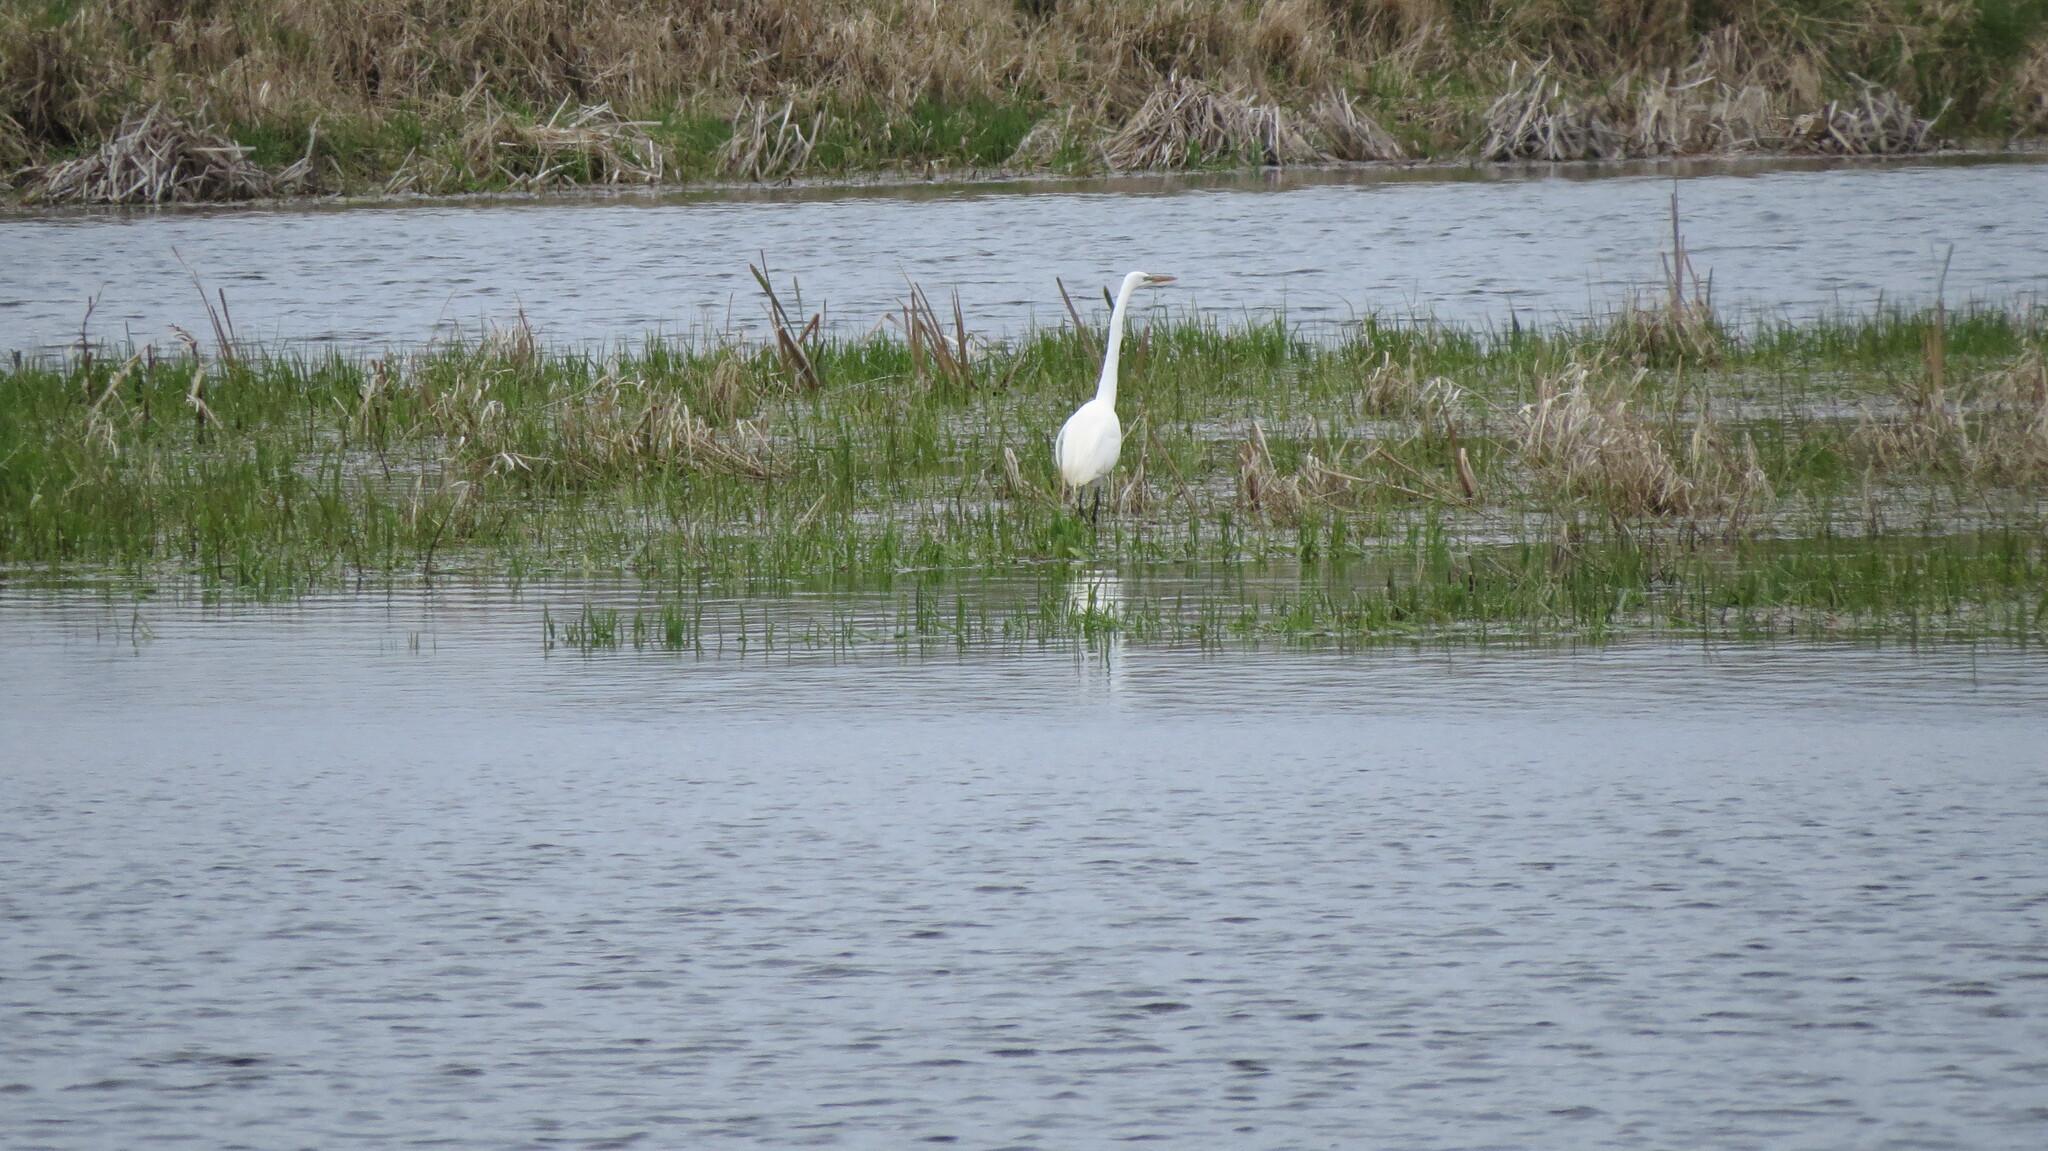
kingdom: Animalia
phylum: Chordata
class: Aves
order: Pelecaniformes
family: Ardeidae
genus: Ardea
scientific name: Ardea alba
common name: Great egret
